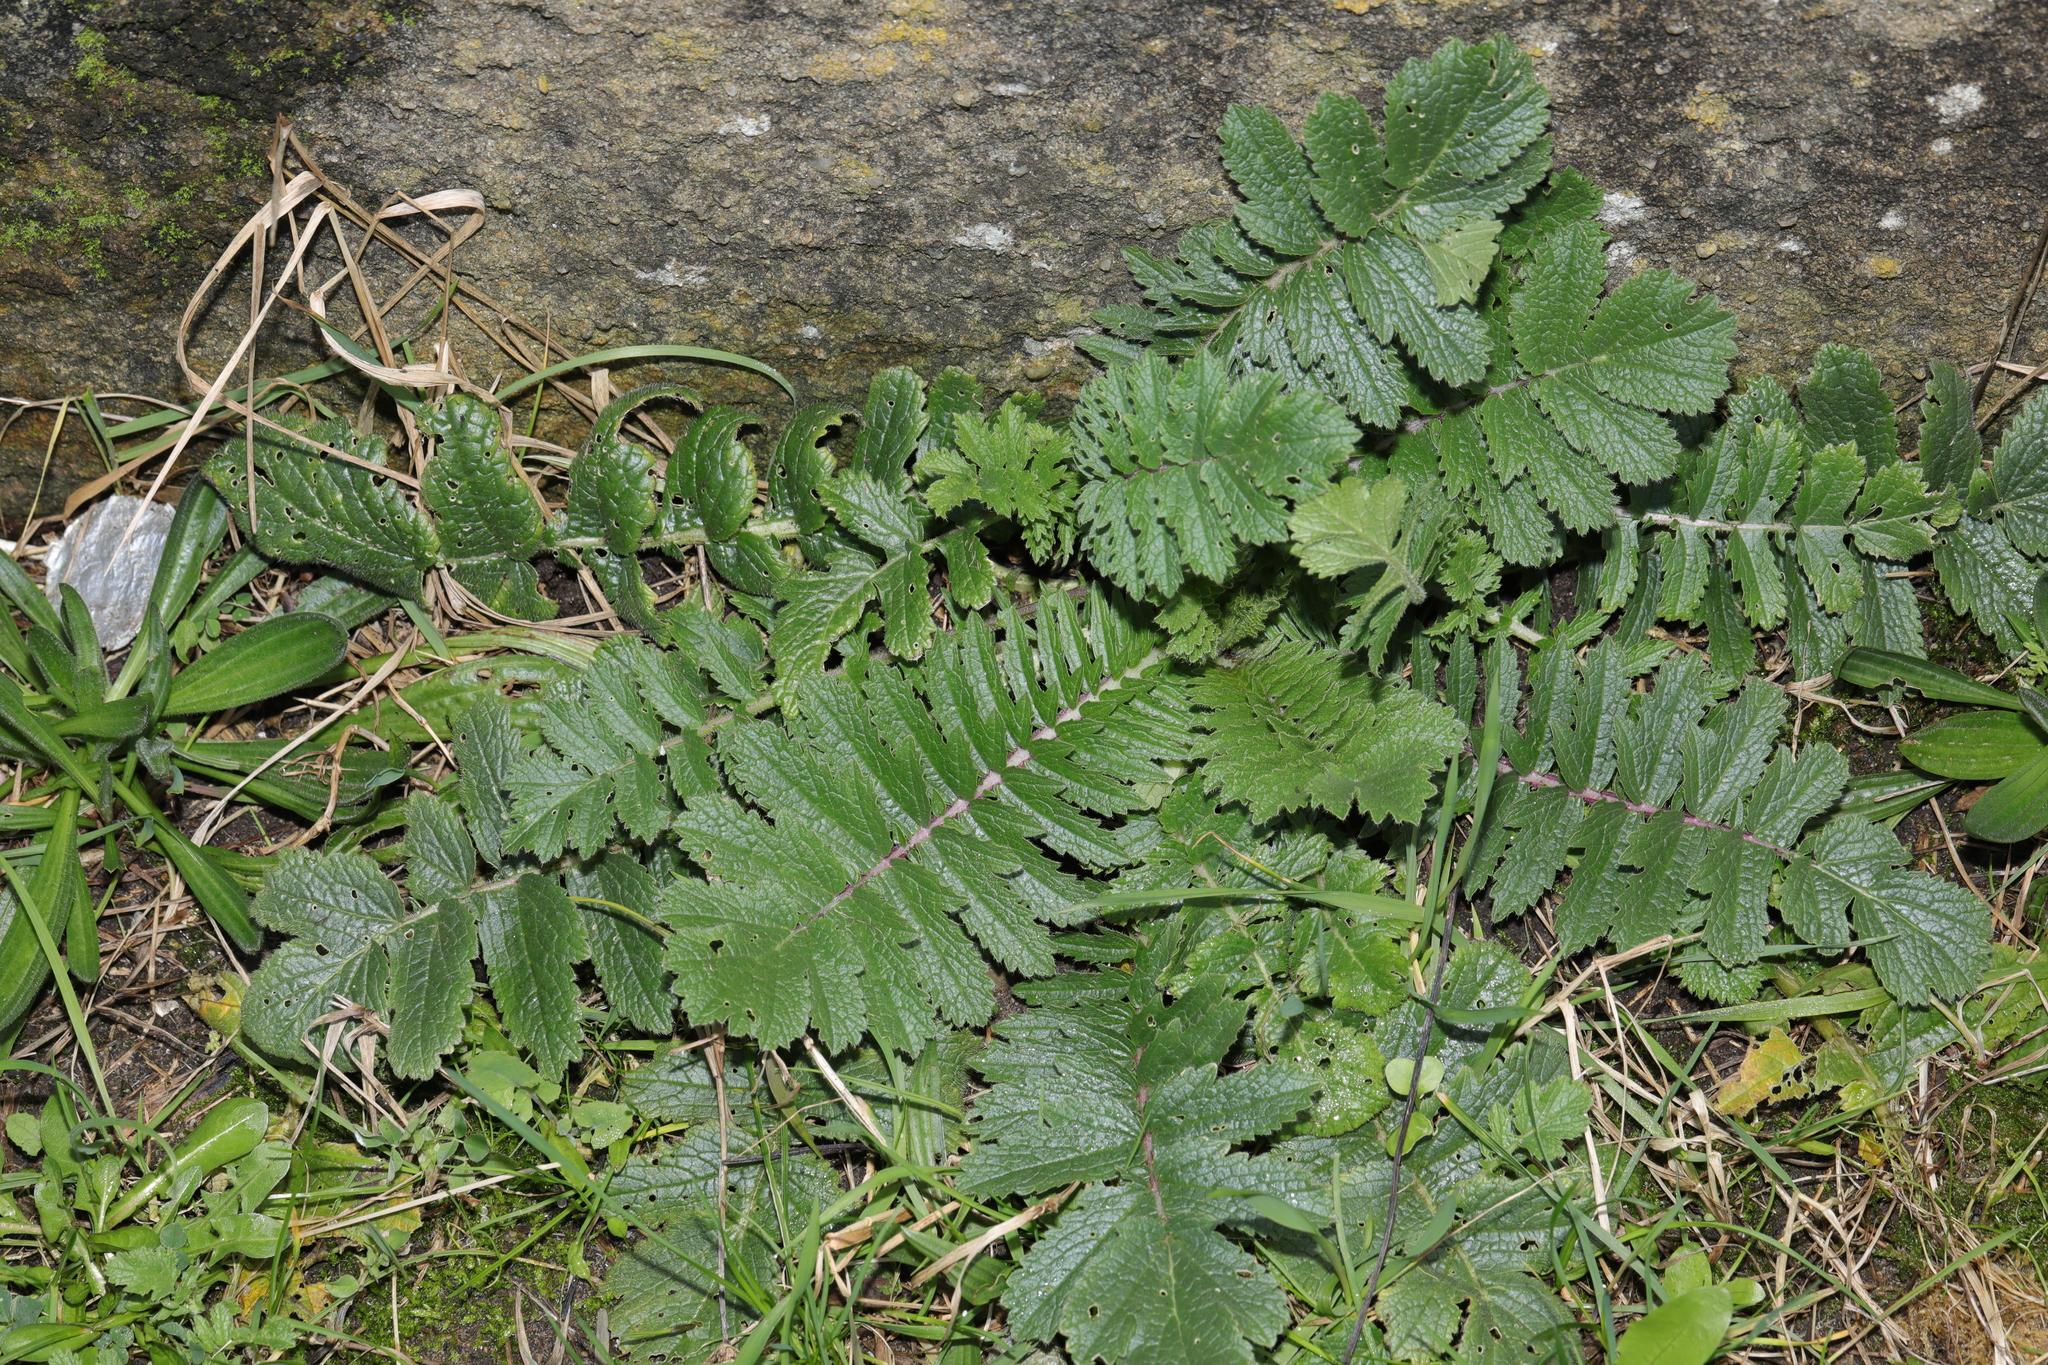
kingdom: Plantae
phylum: Tracheophyta
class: Magnoliopsida
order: Brassicales
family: Brassicaceae
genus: Raphanus
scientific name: Raphanus raphanistrum
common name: Wild radish
